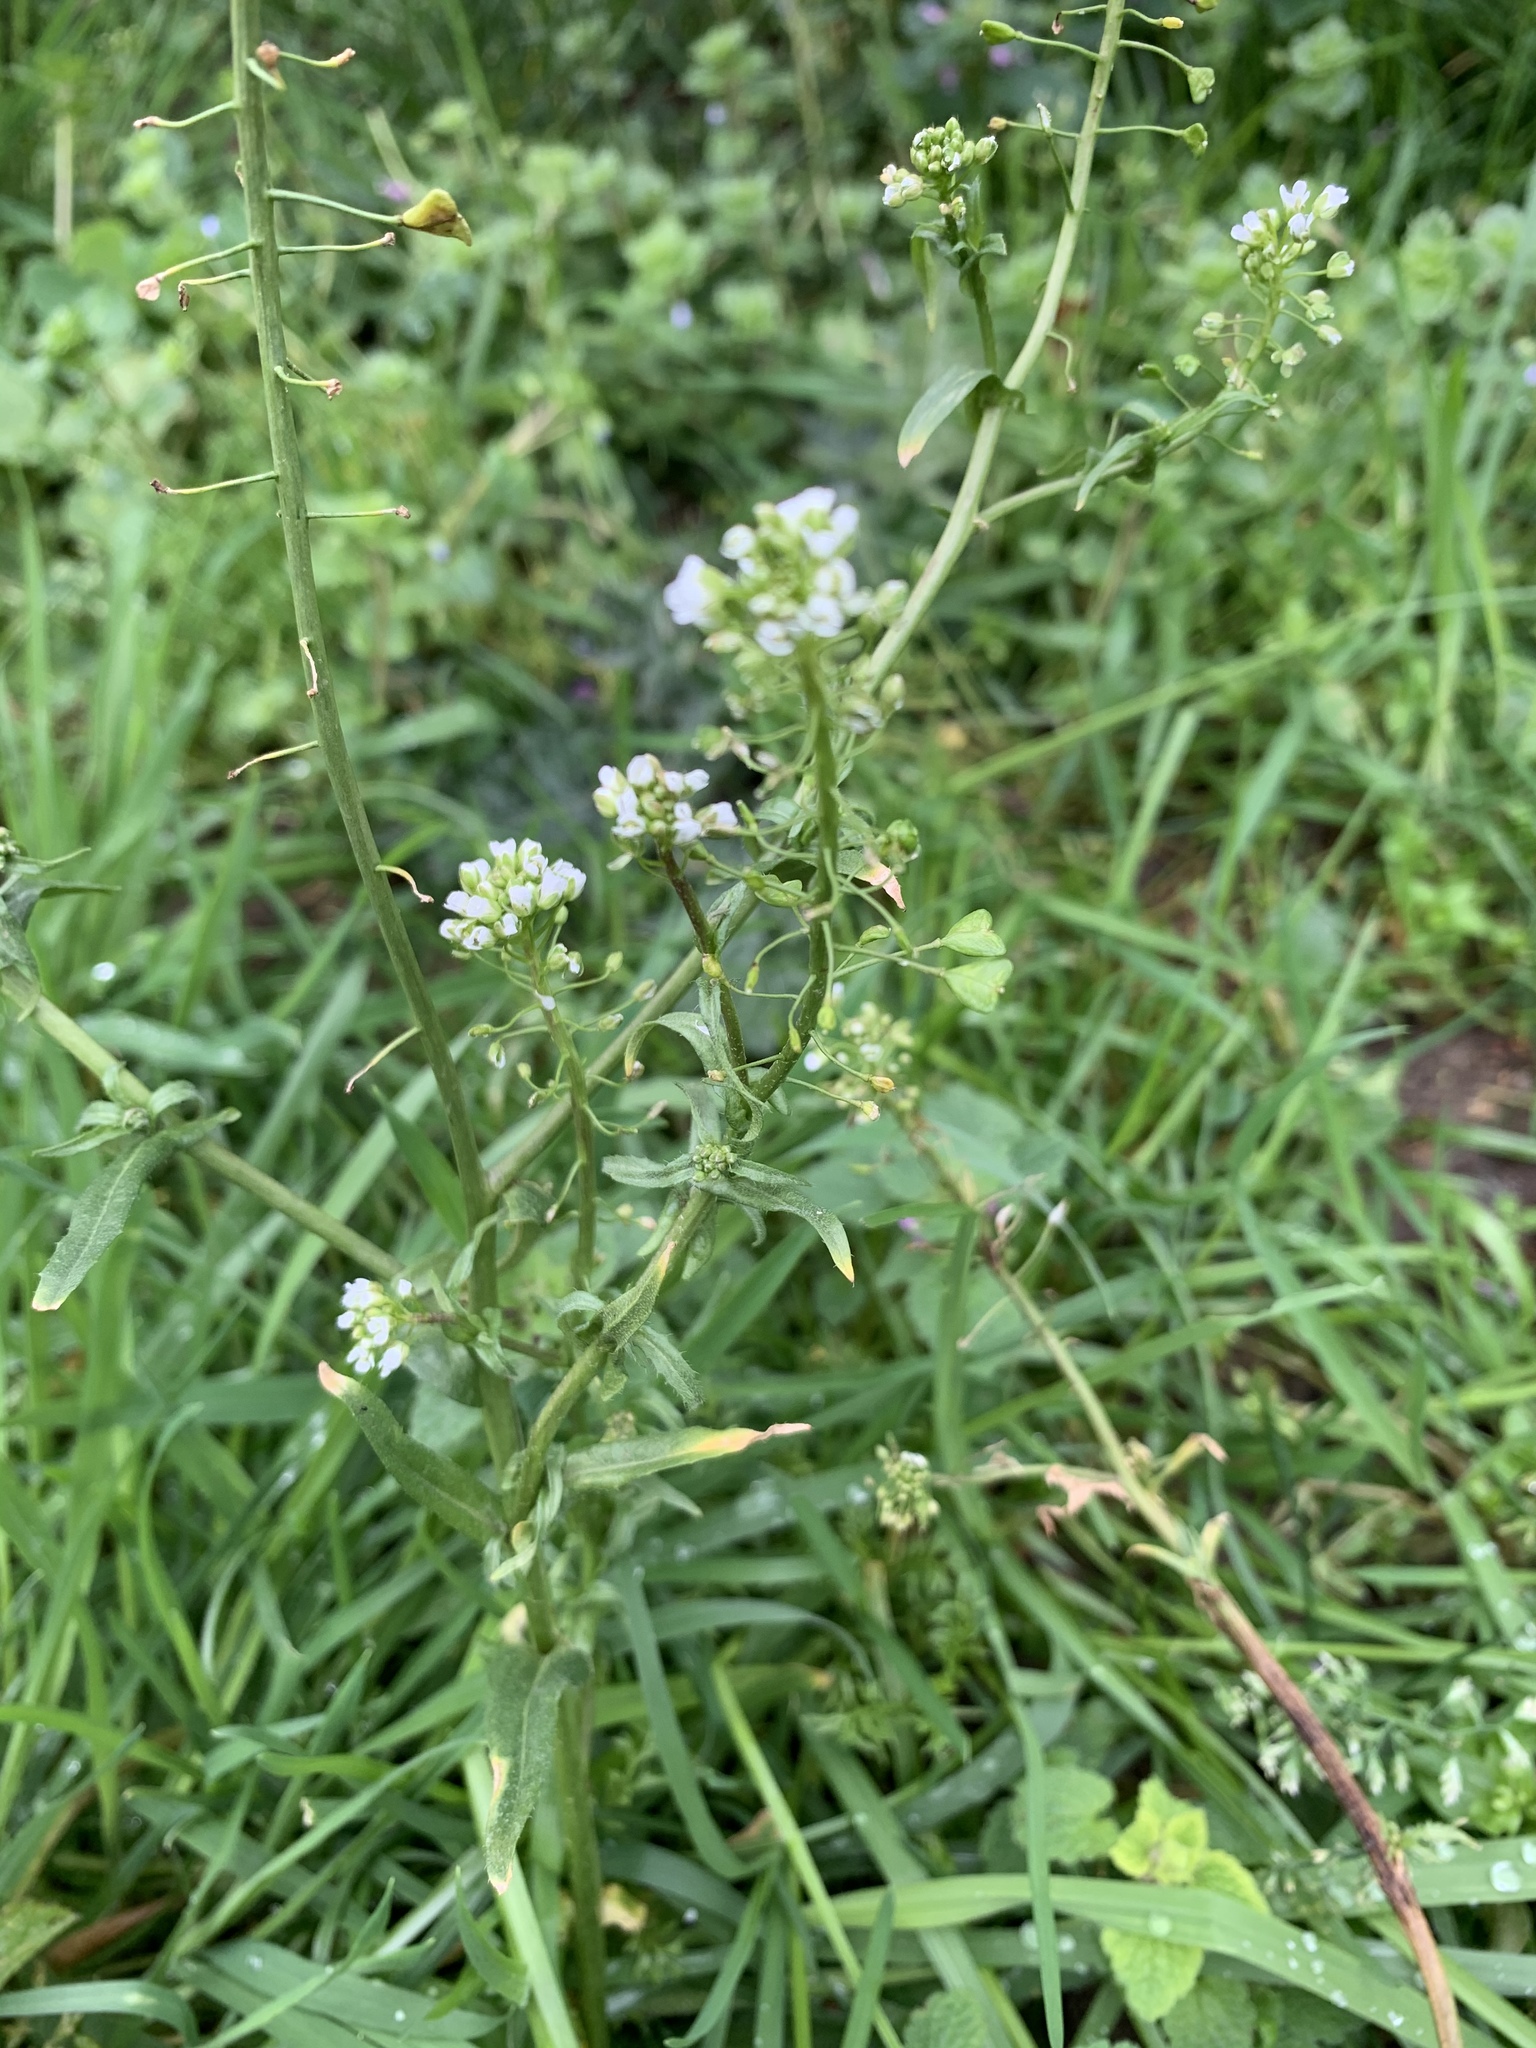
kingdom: Plantae
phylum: Tracheophyta
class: Magnoliopsida
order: Brassicales
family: Brassicaceae
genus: Capsella
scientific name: Capsella bursa-pastoris
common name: Shepherd's purse
